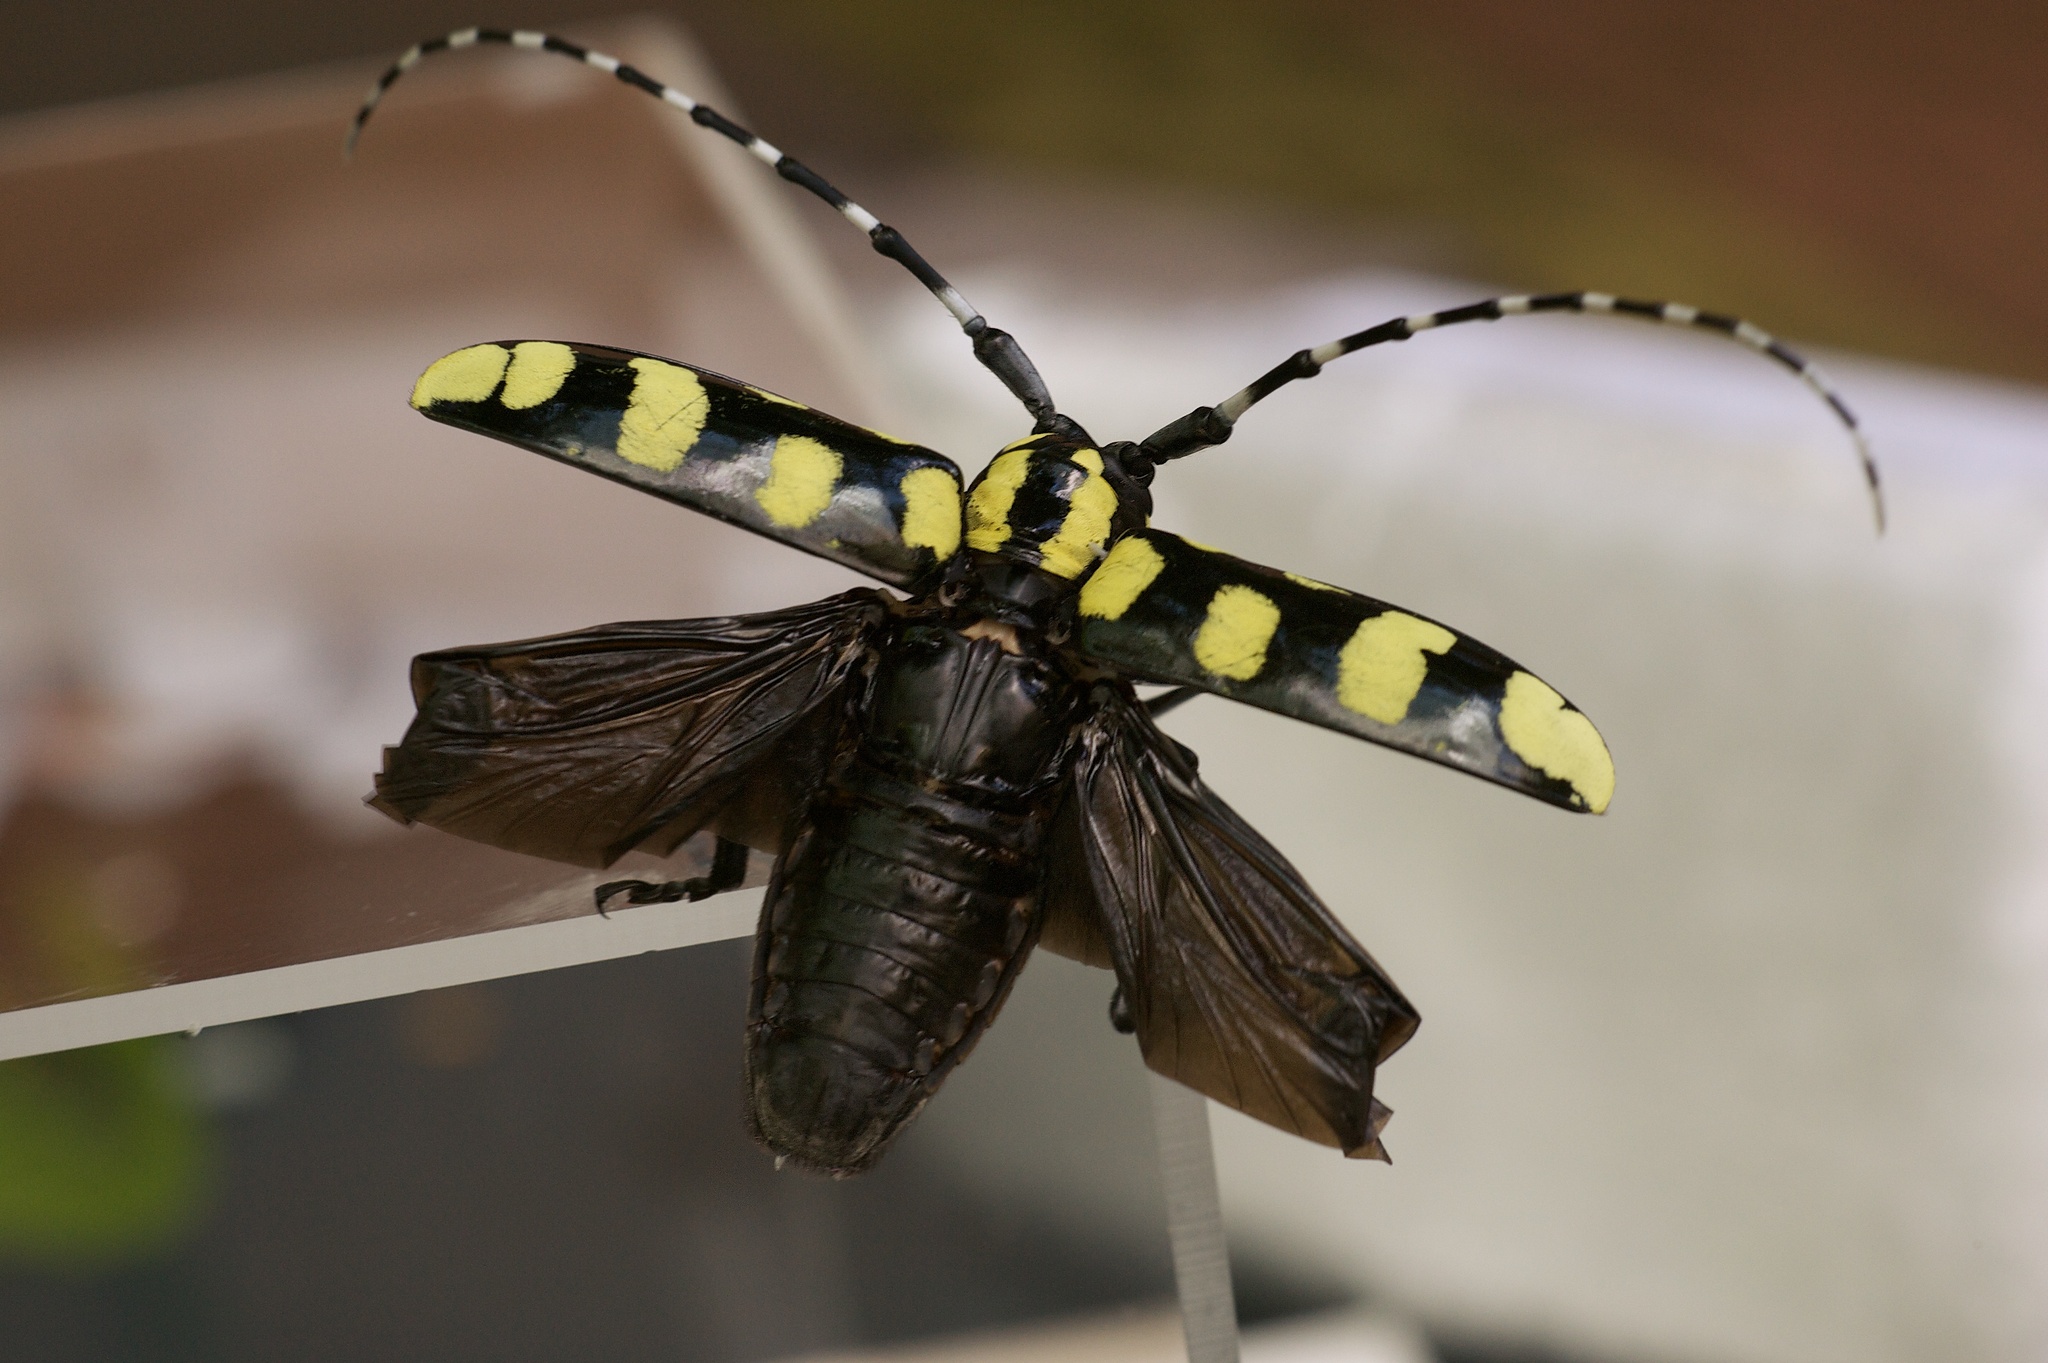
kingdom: Animalia
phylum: Arthropoda
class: Insecta
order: Coleoptera
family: Cerambycidae
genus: Anoplophora
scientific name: Anoplophora horsfieldii
